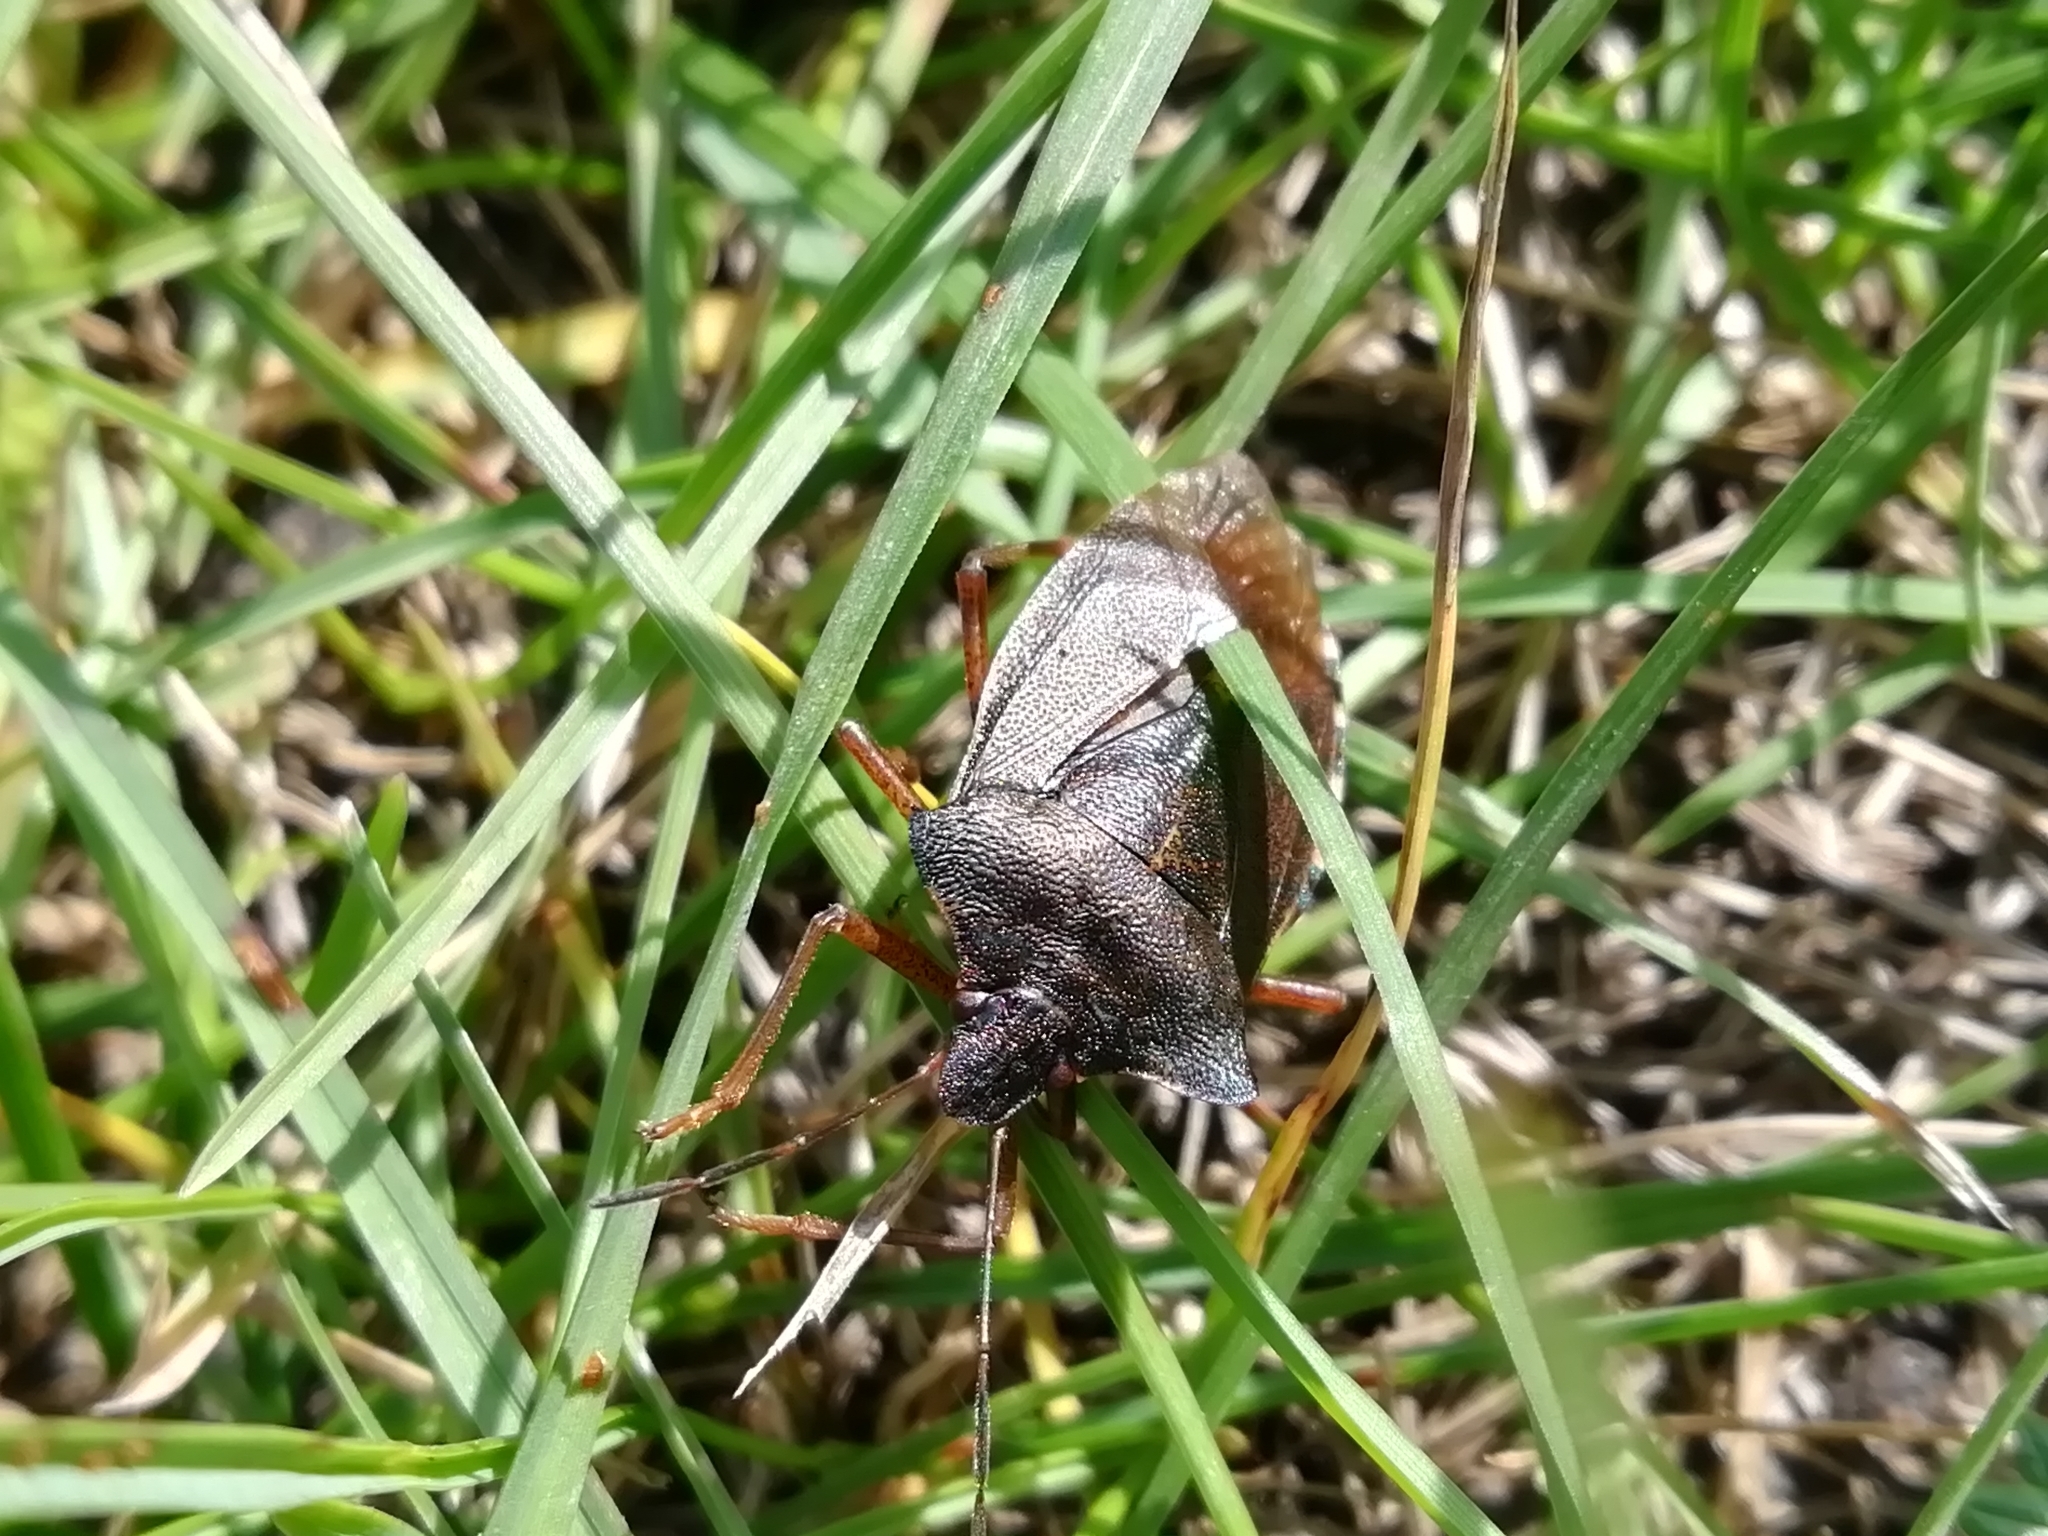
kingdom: Animalia
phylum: Arthropoda
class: Insecta
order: Hemiptera
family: Pentatomidae
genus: Pentatoma
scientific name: Pentatoma rufipes
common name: Forest bug
